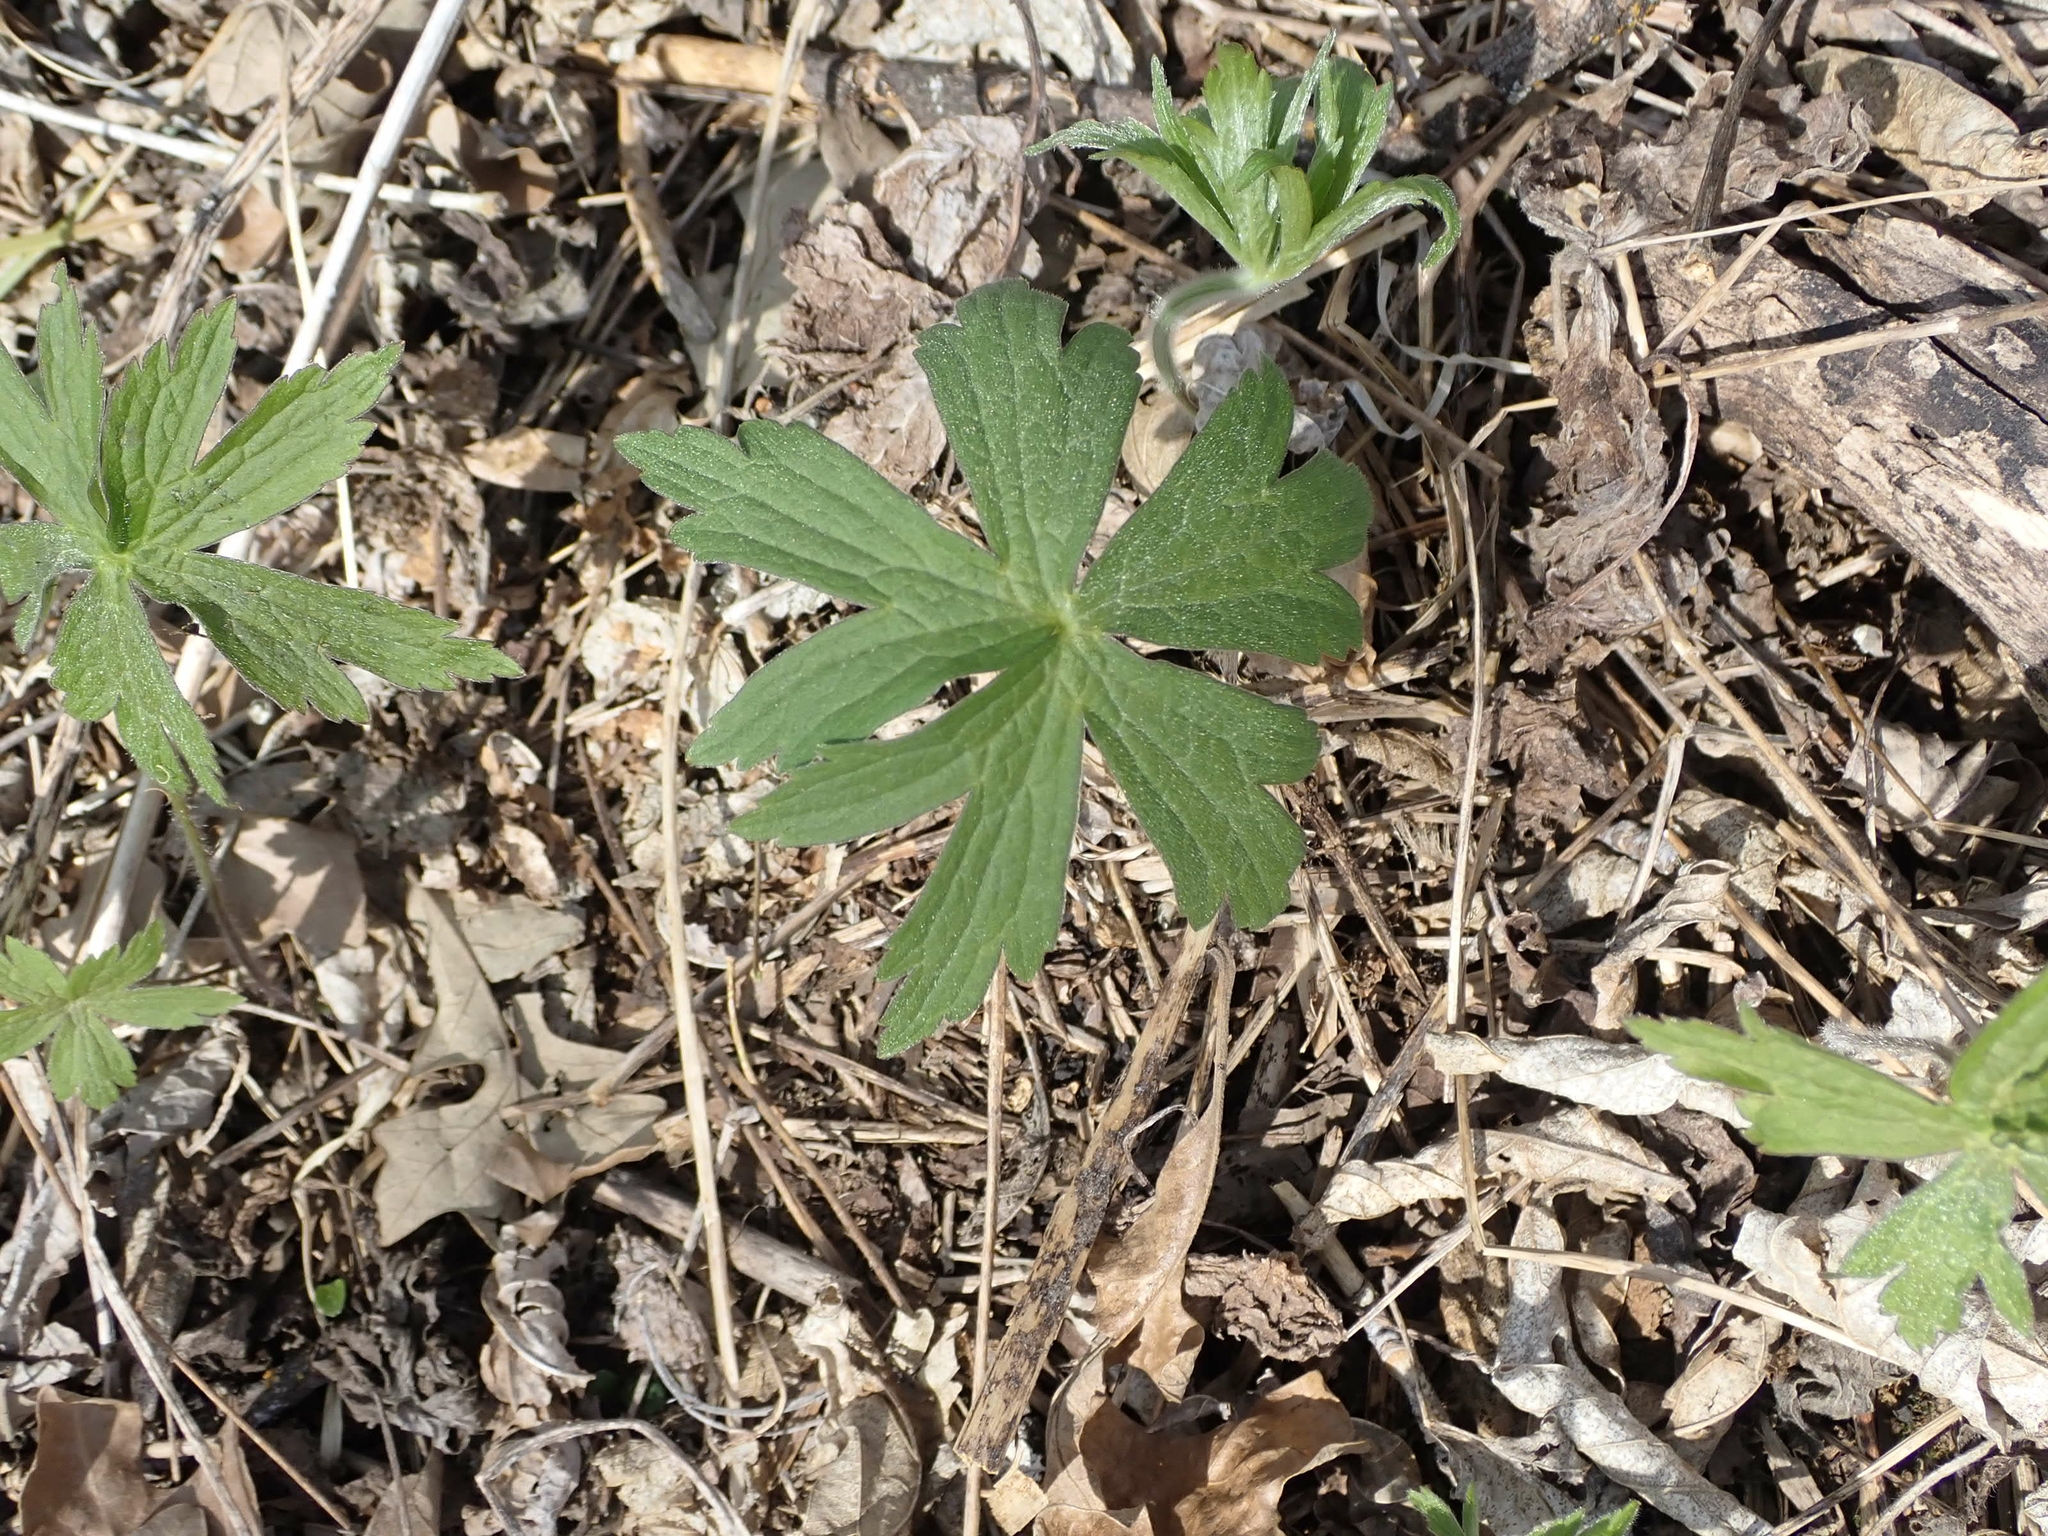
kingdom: Plantae
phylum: Tracheophyta
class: Magnoliopsida
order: Ranunculales
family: Ranunculaceae
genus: Anemonastrum
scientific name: Anemonastrum canadense
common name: Canada anemone
